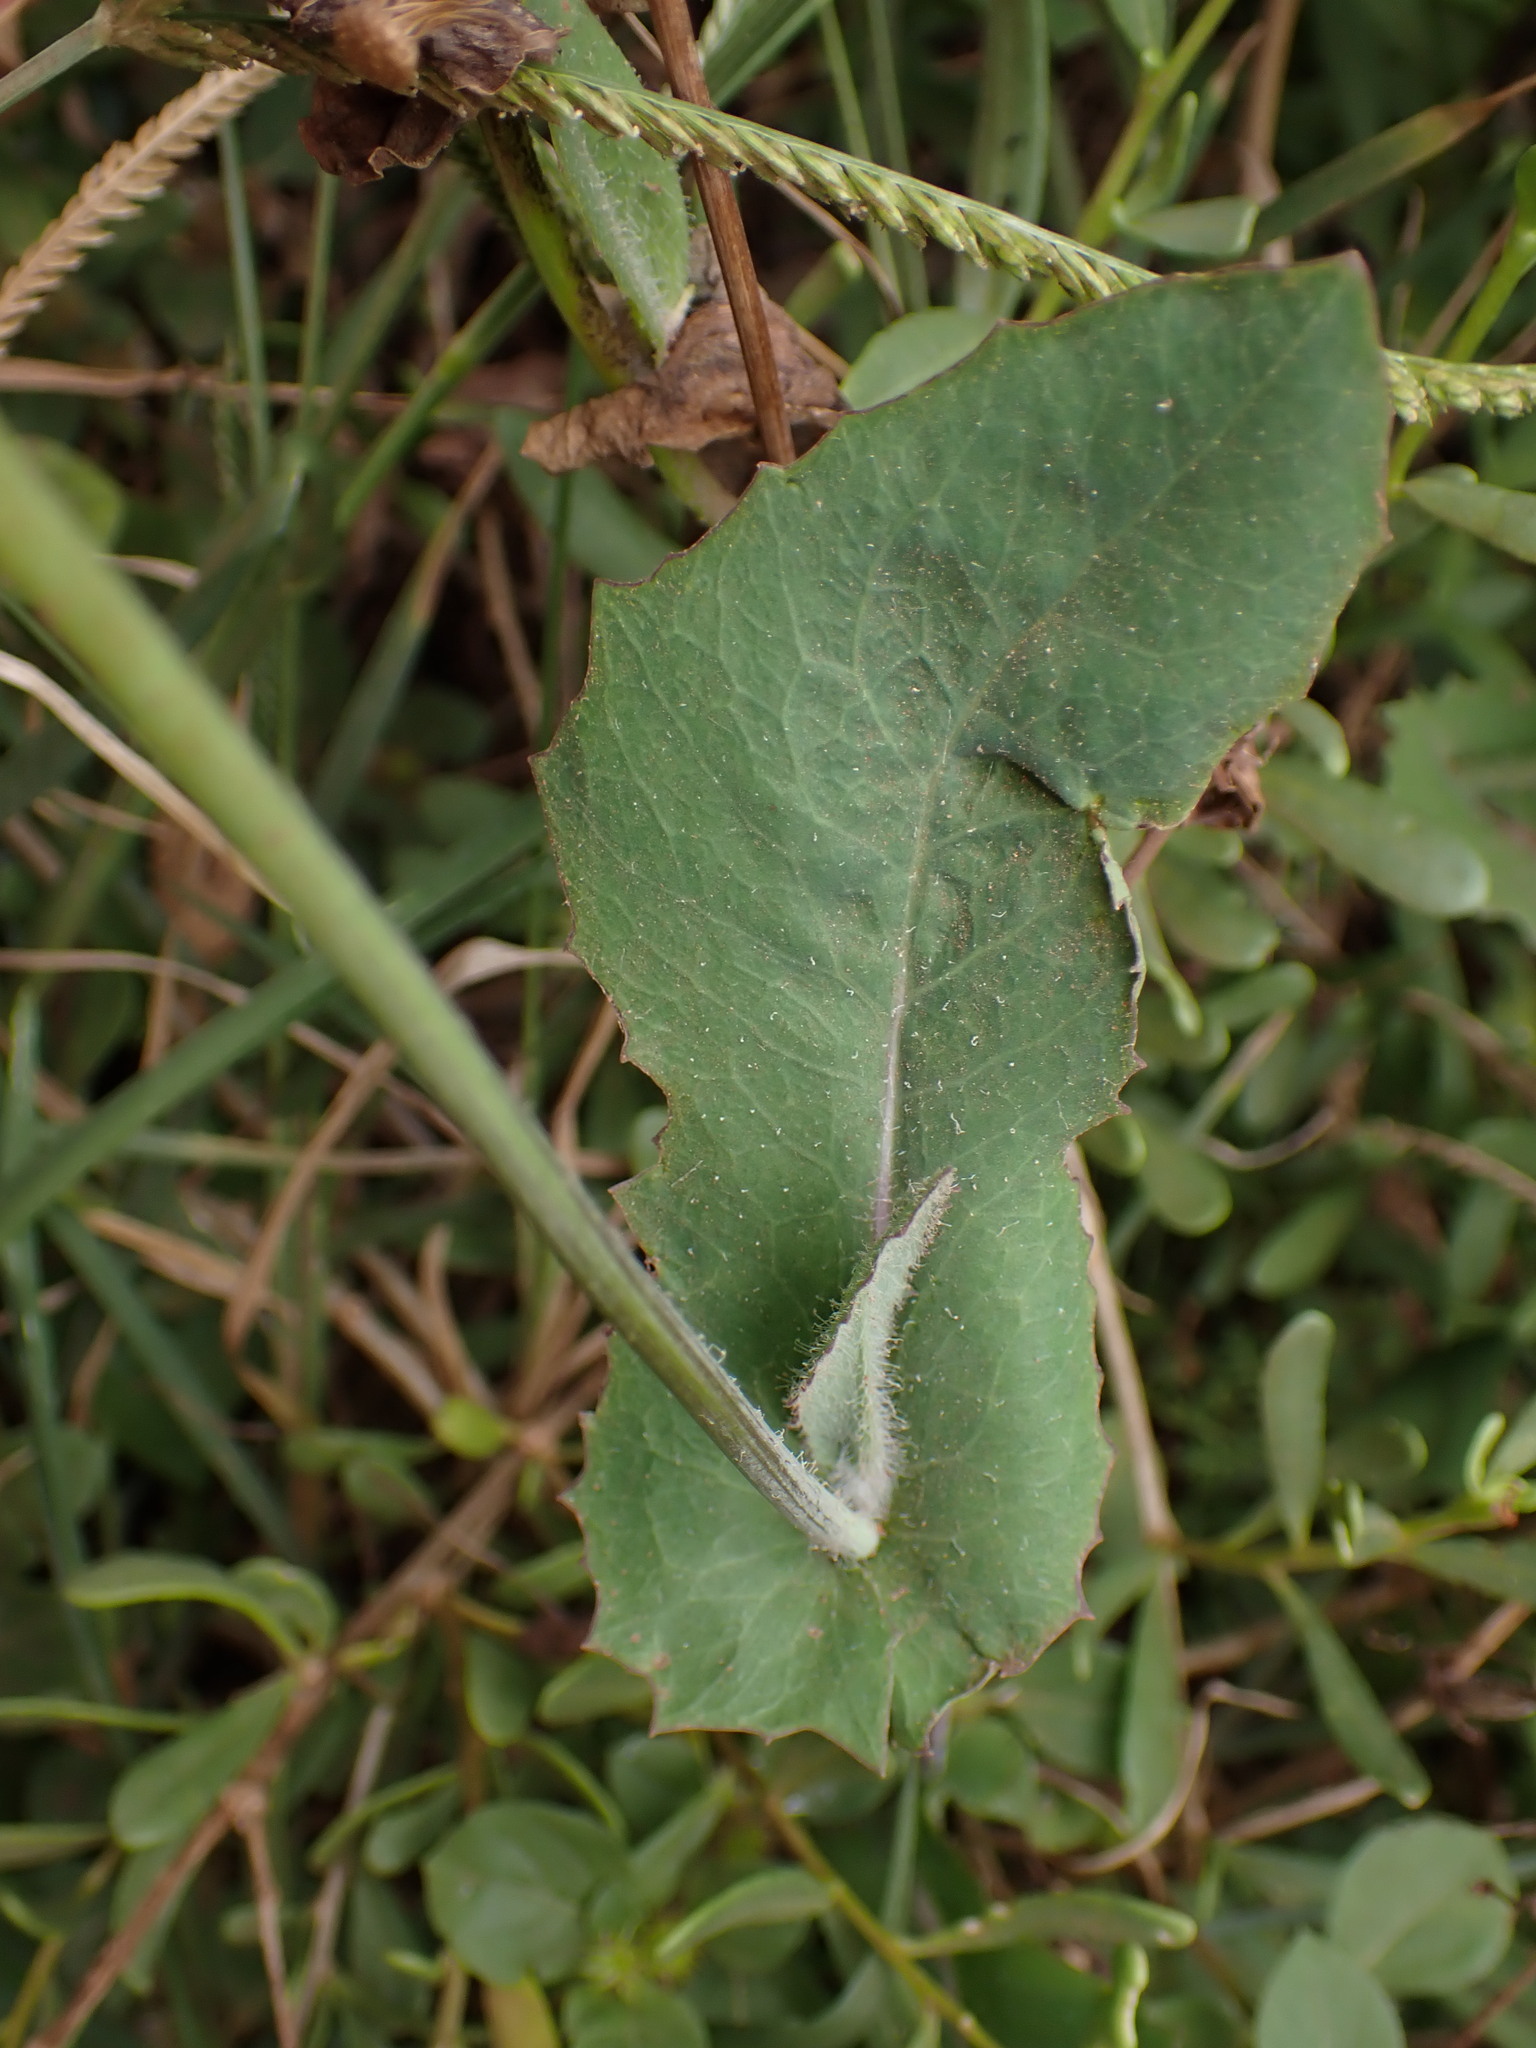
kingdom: Plantae
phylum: Tracheophyta
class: Magnoliopsida
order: Asterales
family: Asteraceae
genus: Emilia
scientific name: Emilia fosbergii
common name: Florida tasselflower
